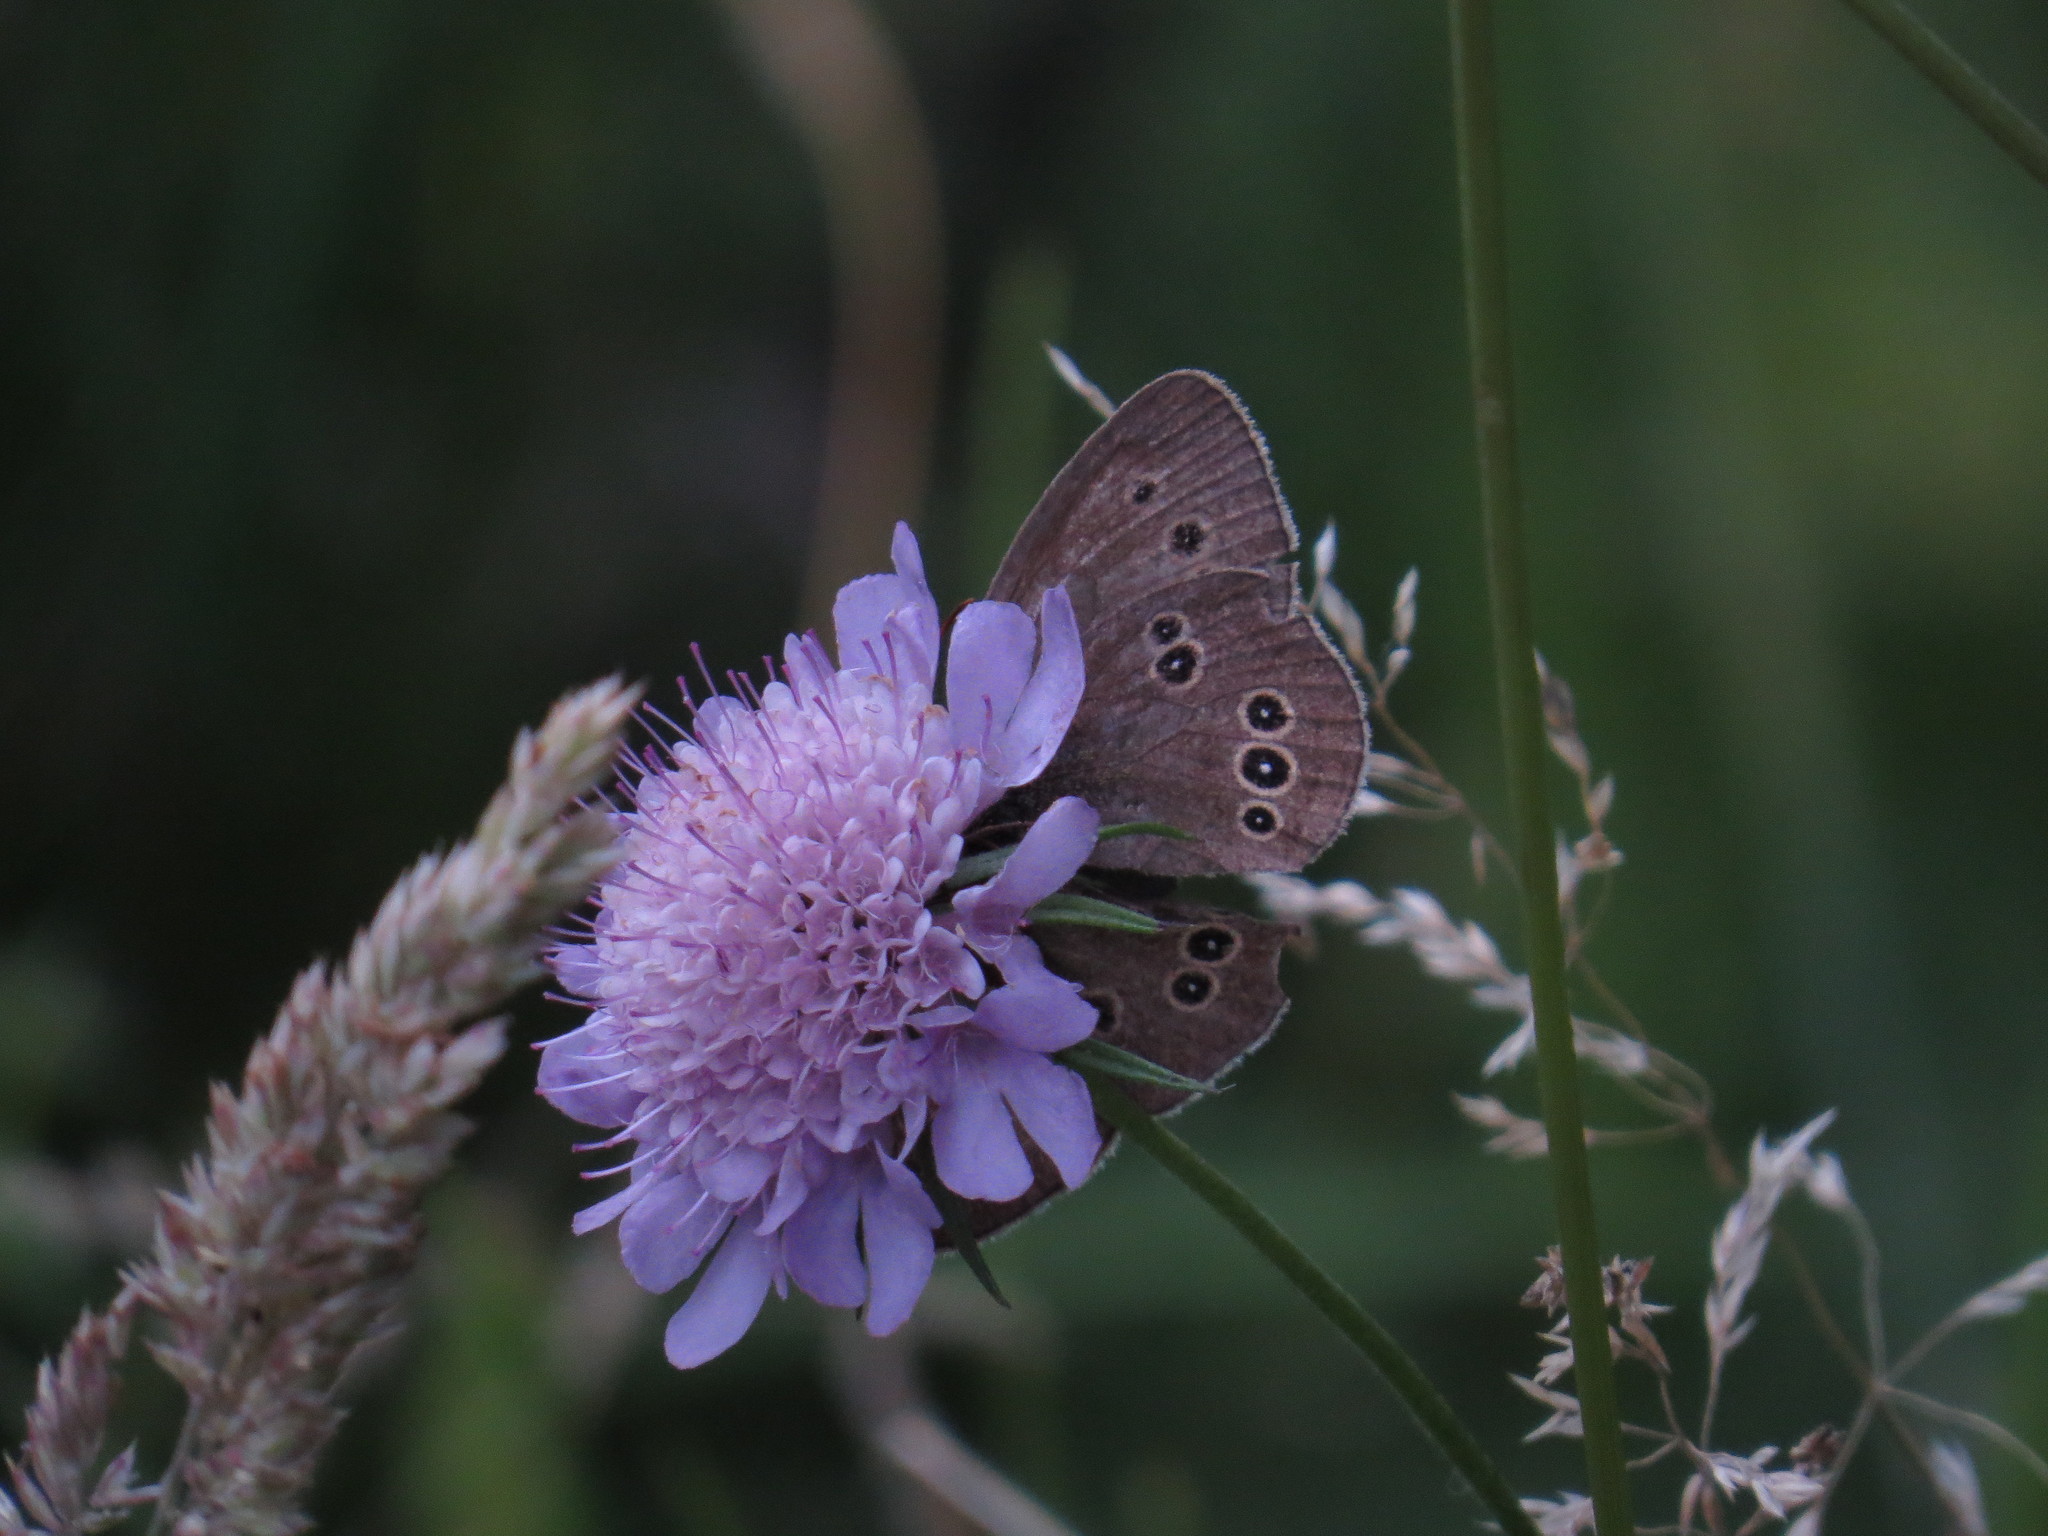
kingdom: Animalia
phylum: Arthropoda
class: Insecta
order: Lepidoptera
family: Nymphalidae
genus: Aphantopus
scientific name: Aphantopus hyperantus
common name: Ringlet
